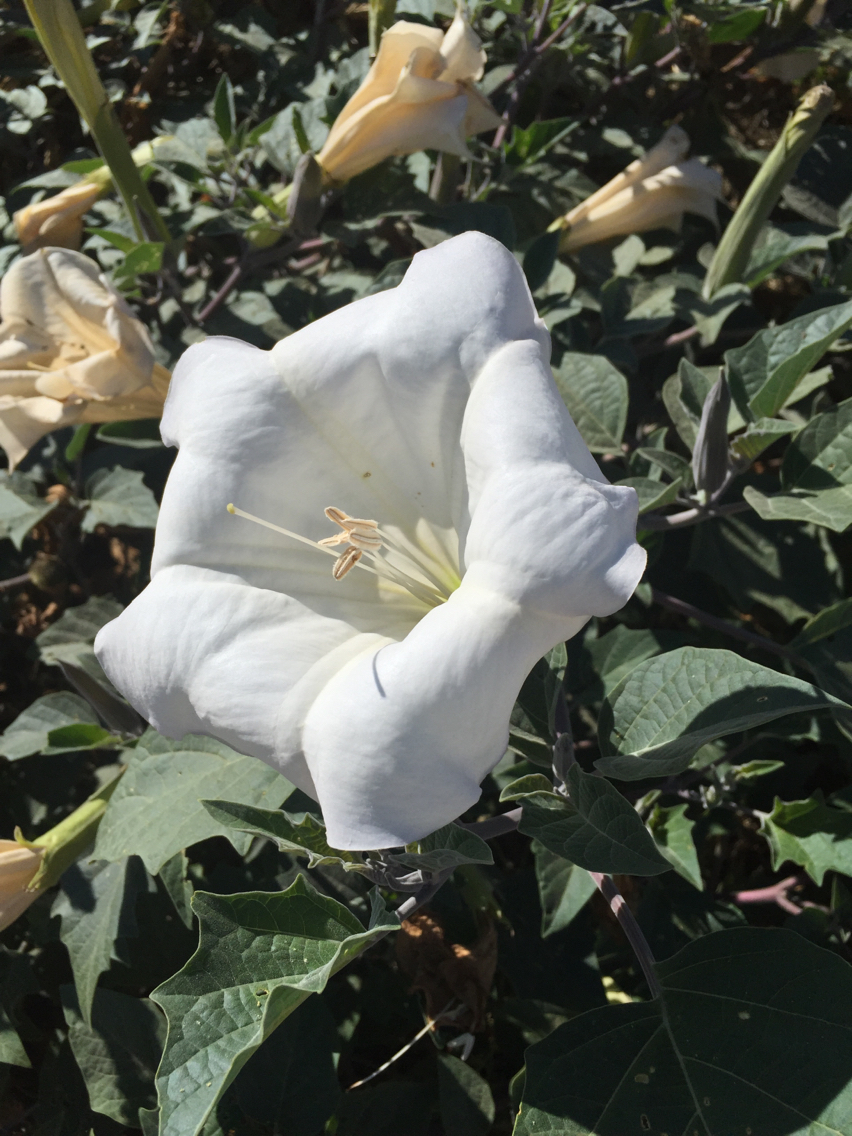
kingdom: Plantae
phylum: Tracheophyta
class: Magnoliopsida
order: Solanales
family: Solanaceae
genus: Datura
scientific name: Datura wrightii
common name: Sacred thorn-apple
